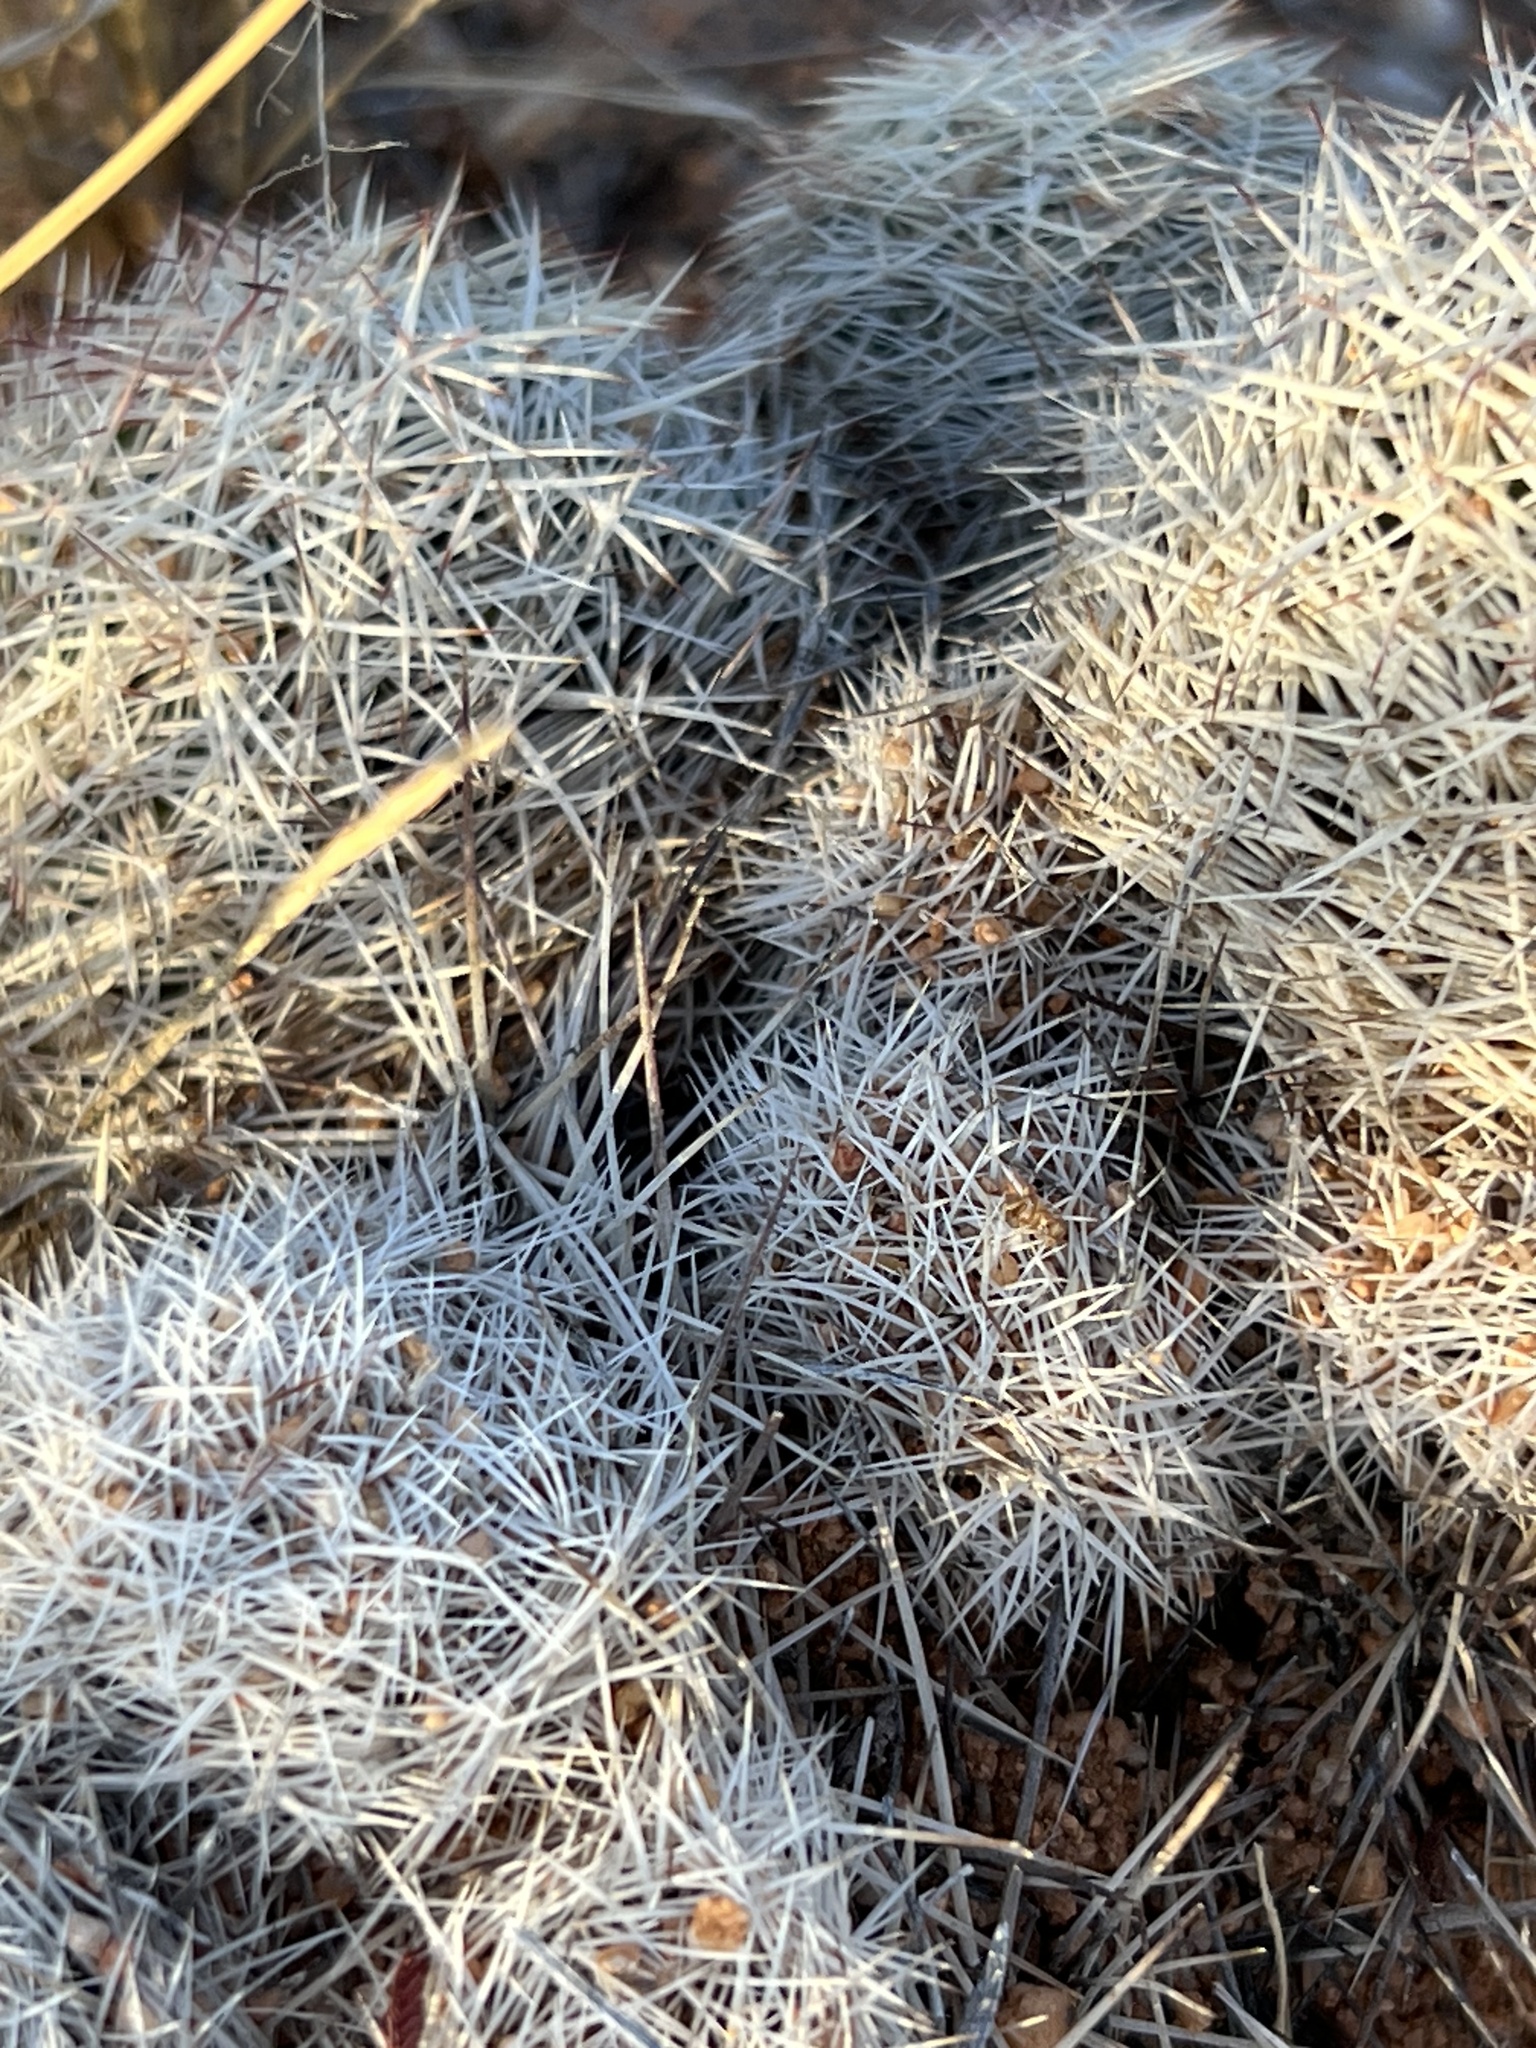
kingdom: Plantae
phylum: Tracheophyta
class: Magnoliopsida
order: Caryophyllales
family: Cactaceae
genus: Pelecyphora
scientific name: Pelecyphora vivipara
